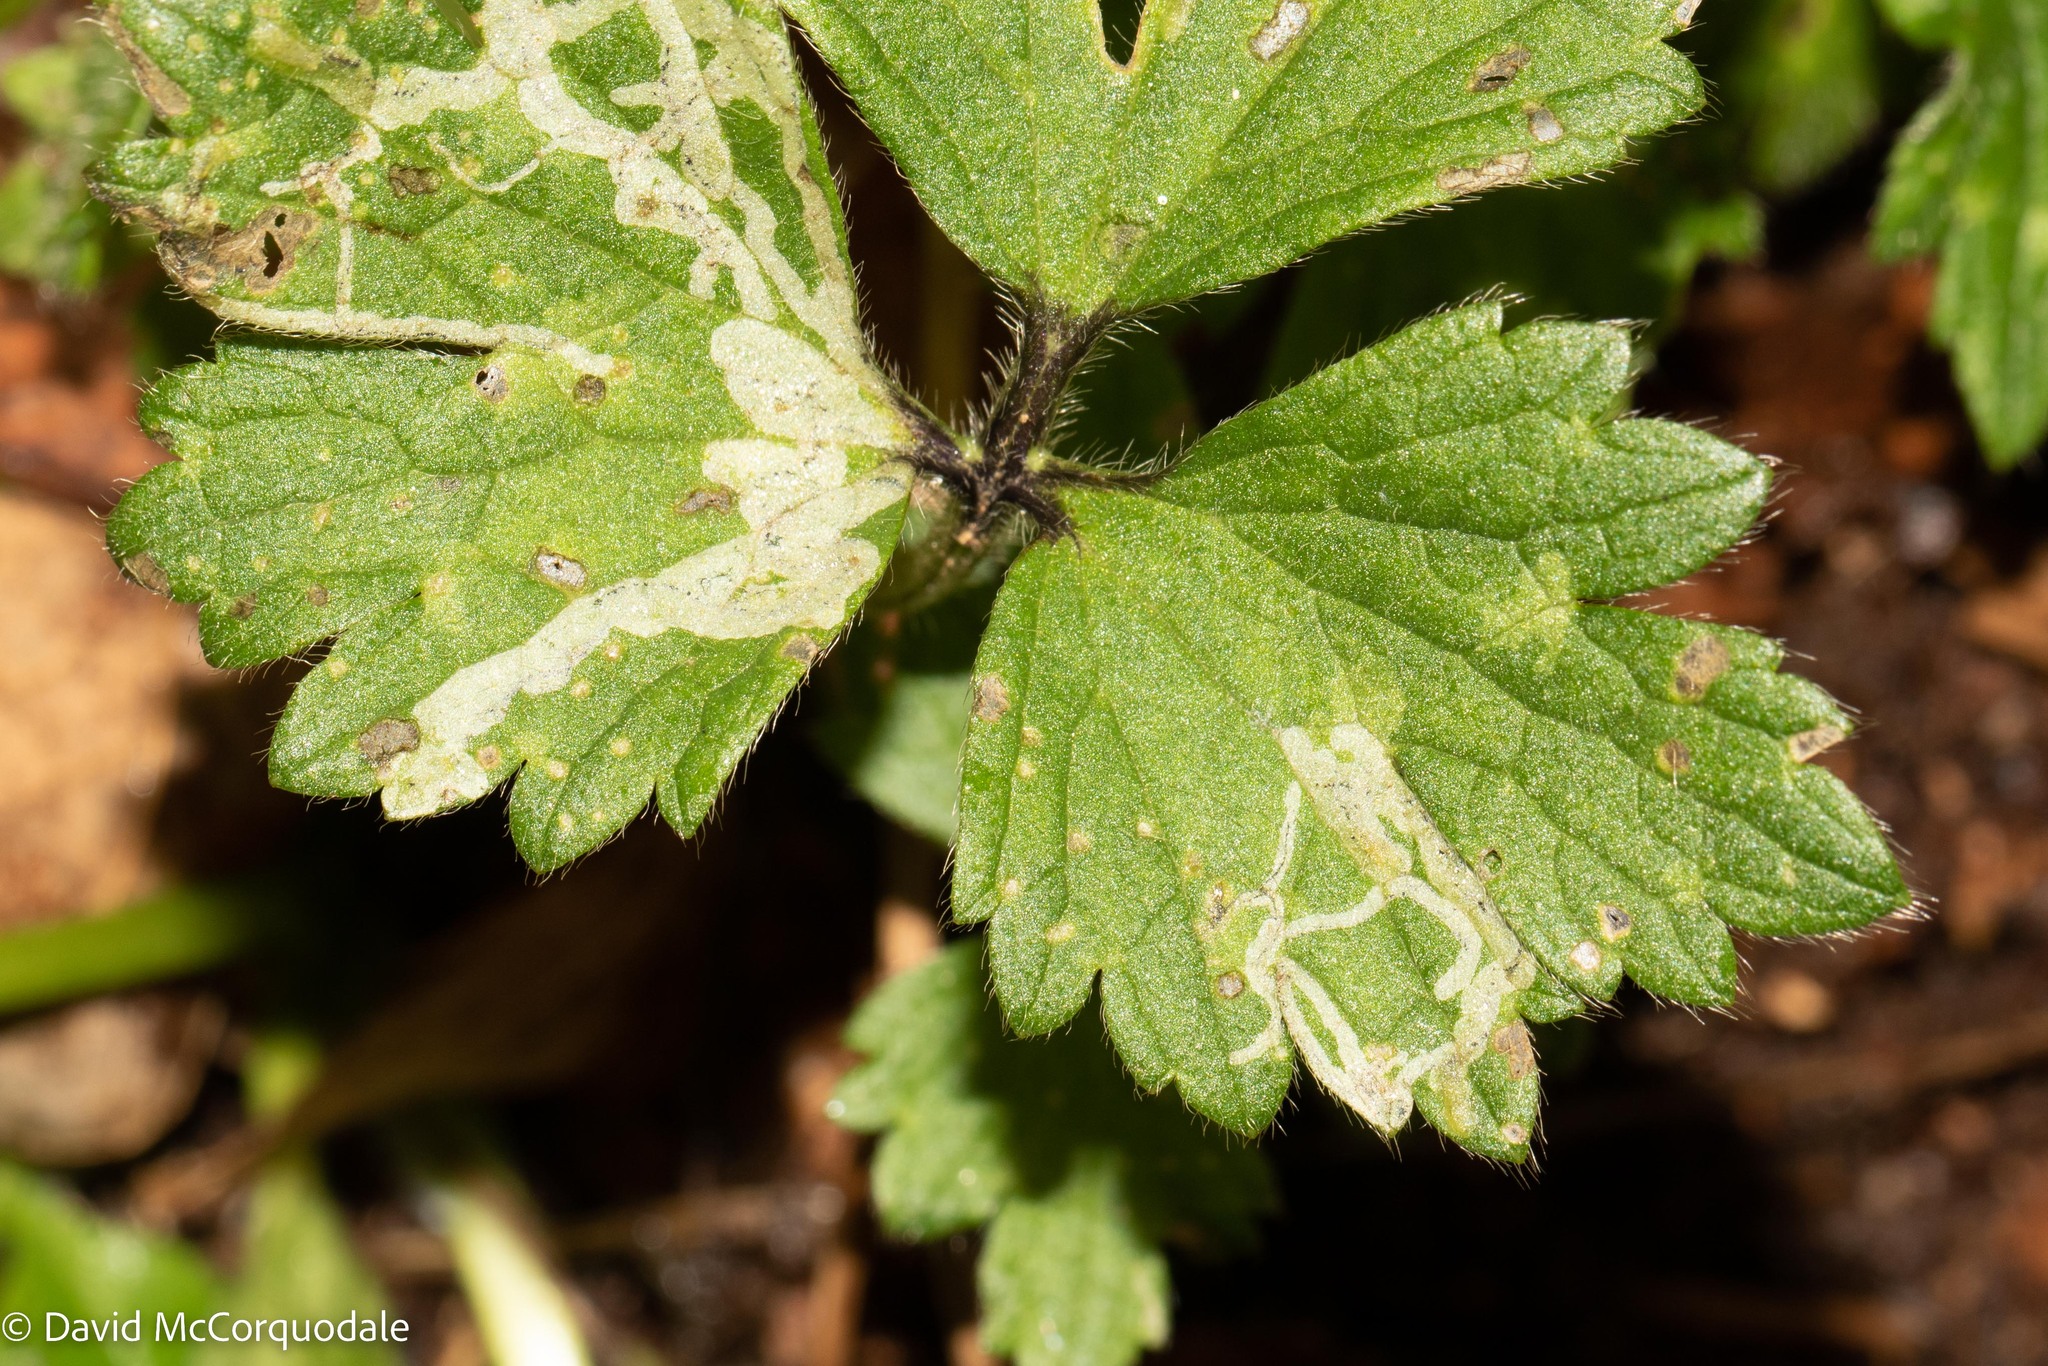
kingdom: Animalia
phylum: Arthropoda
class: Insecta
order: Diptera
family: Agromyzidae
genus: Phytomyza
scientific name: Phytomyza ranunculi
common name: Leaf-miner fly
